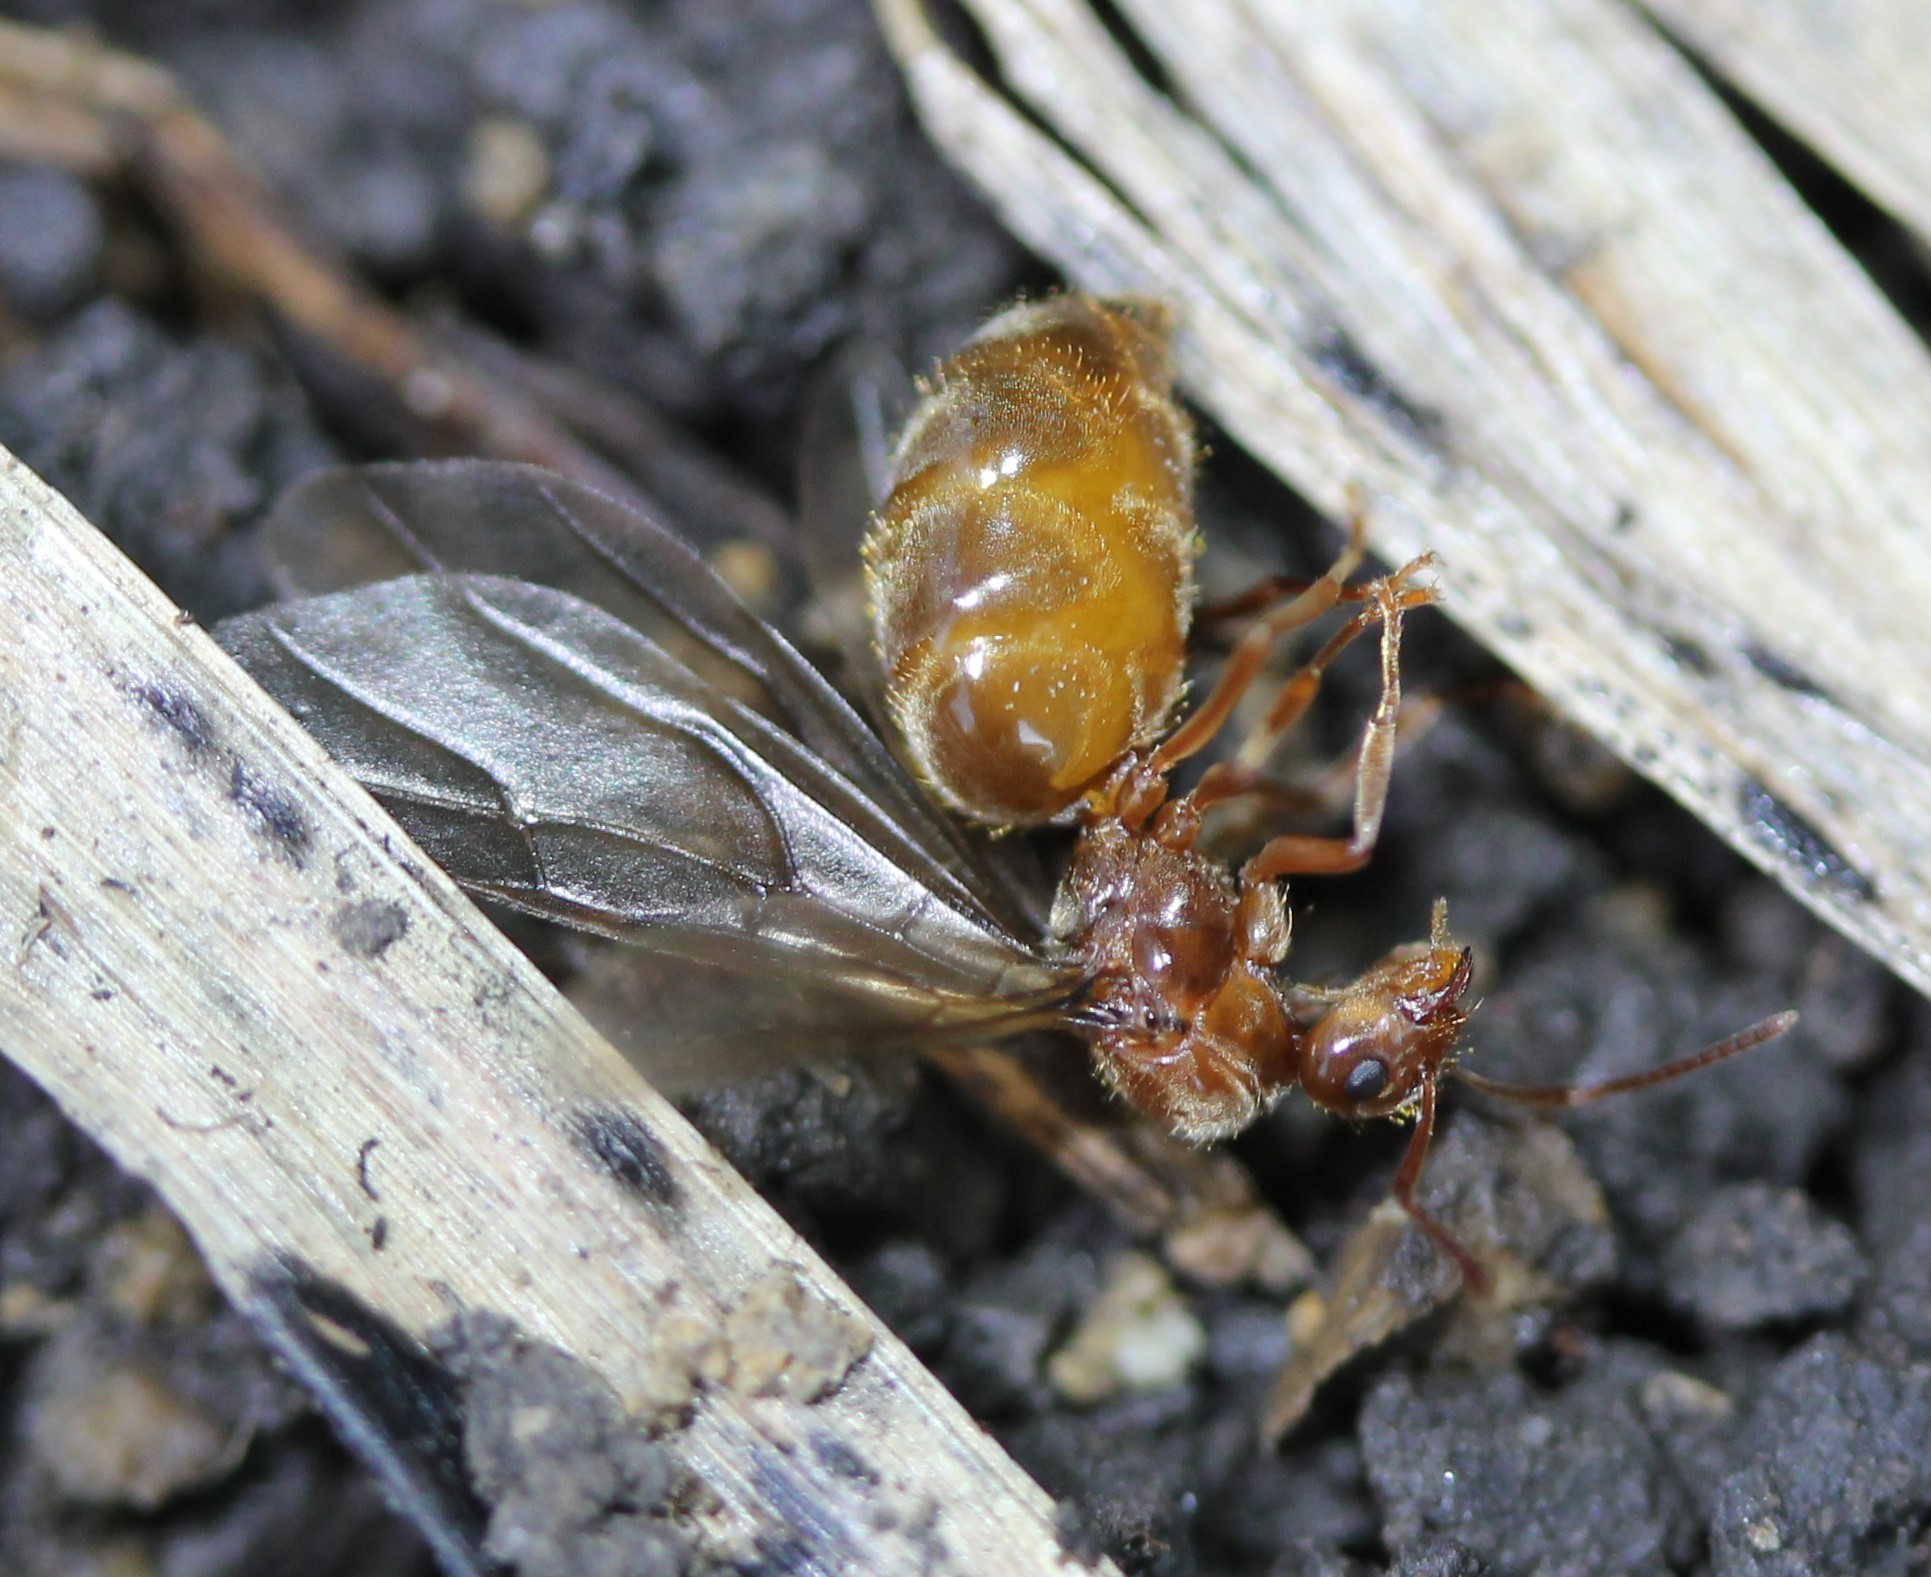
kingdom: Animalia
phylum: Arthropoda
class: Insecta
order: Hymenoptera
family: Formicidae
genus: Prenolepis
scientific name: Prenolepis imparis
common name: Small honey ant
